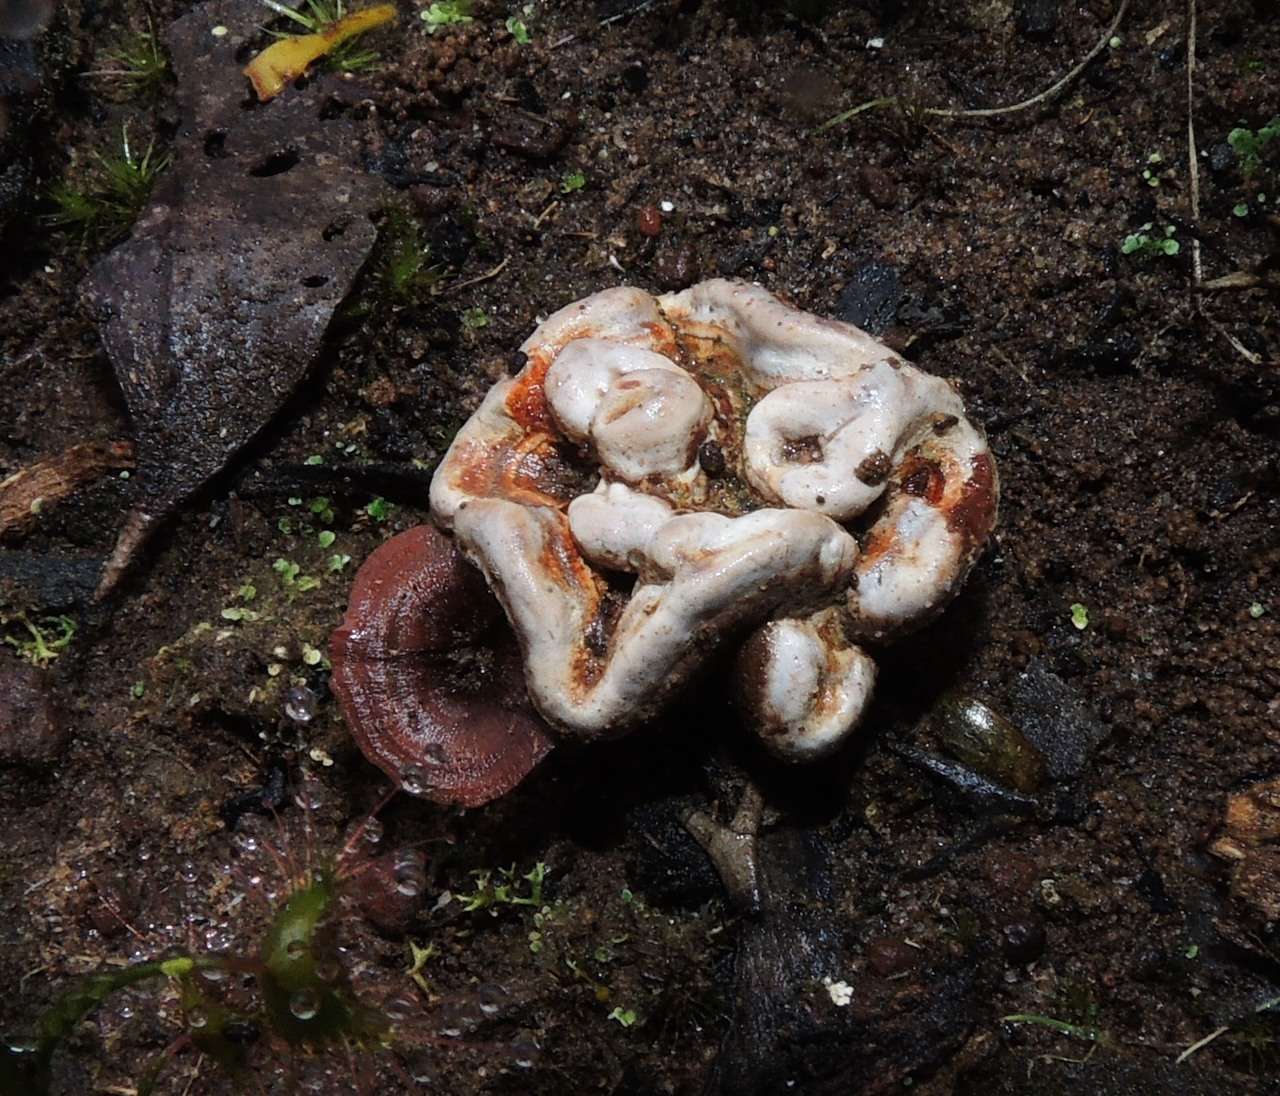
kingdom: Fungi
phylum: Basidiomycota
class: Agaricomycetes
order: Hymenochaetales
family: Hymenochaetaceae
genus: Coltricia
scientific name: Coltricia australica
